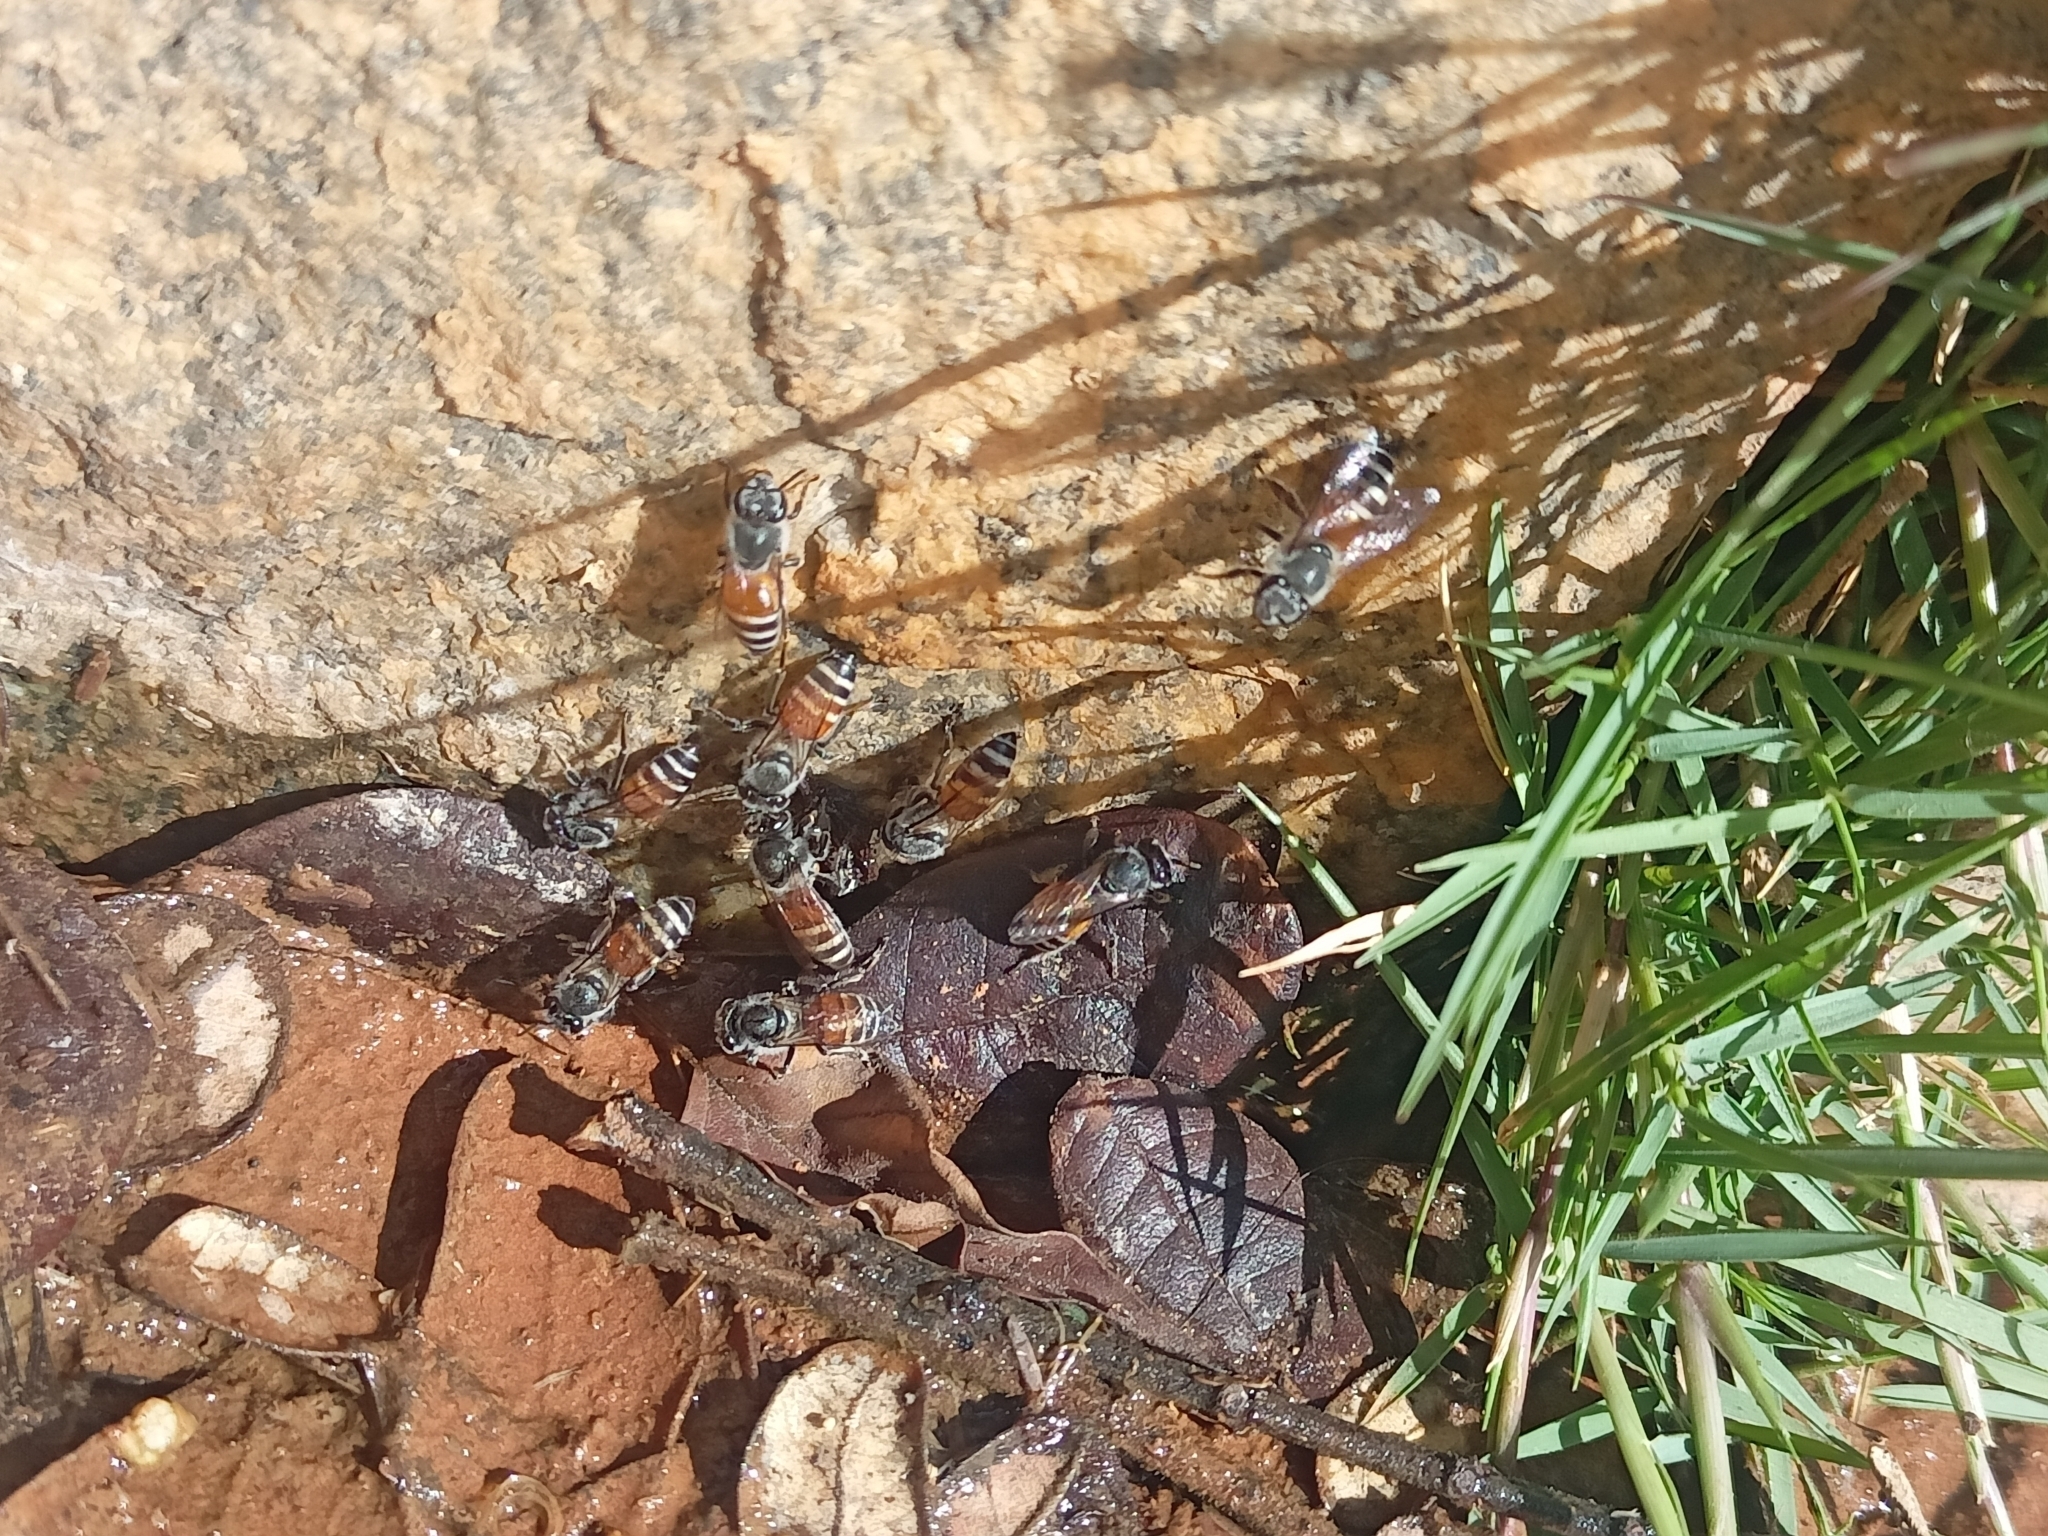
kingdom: Animalia
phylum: Arthropoda
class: Insecta
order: Hymenoptera
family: Apidae
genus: Apis
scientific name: Apis florea
